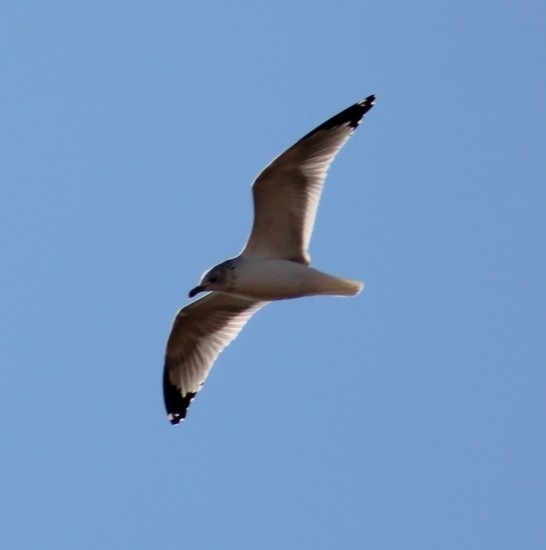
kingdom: Animalia
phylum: Chordata
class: Aves
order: Charadriiformes
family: Laridae
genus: Leucophaeus
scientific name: Leucophaeus atricilla
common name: Laughing gull
